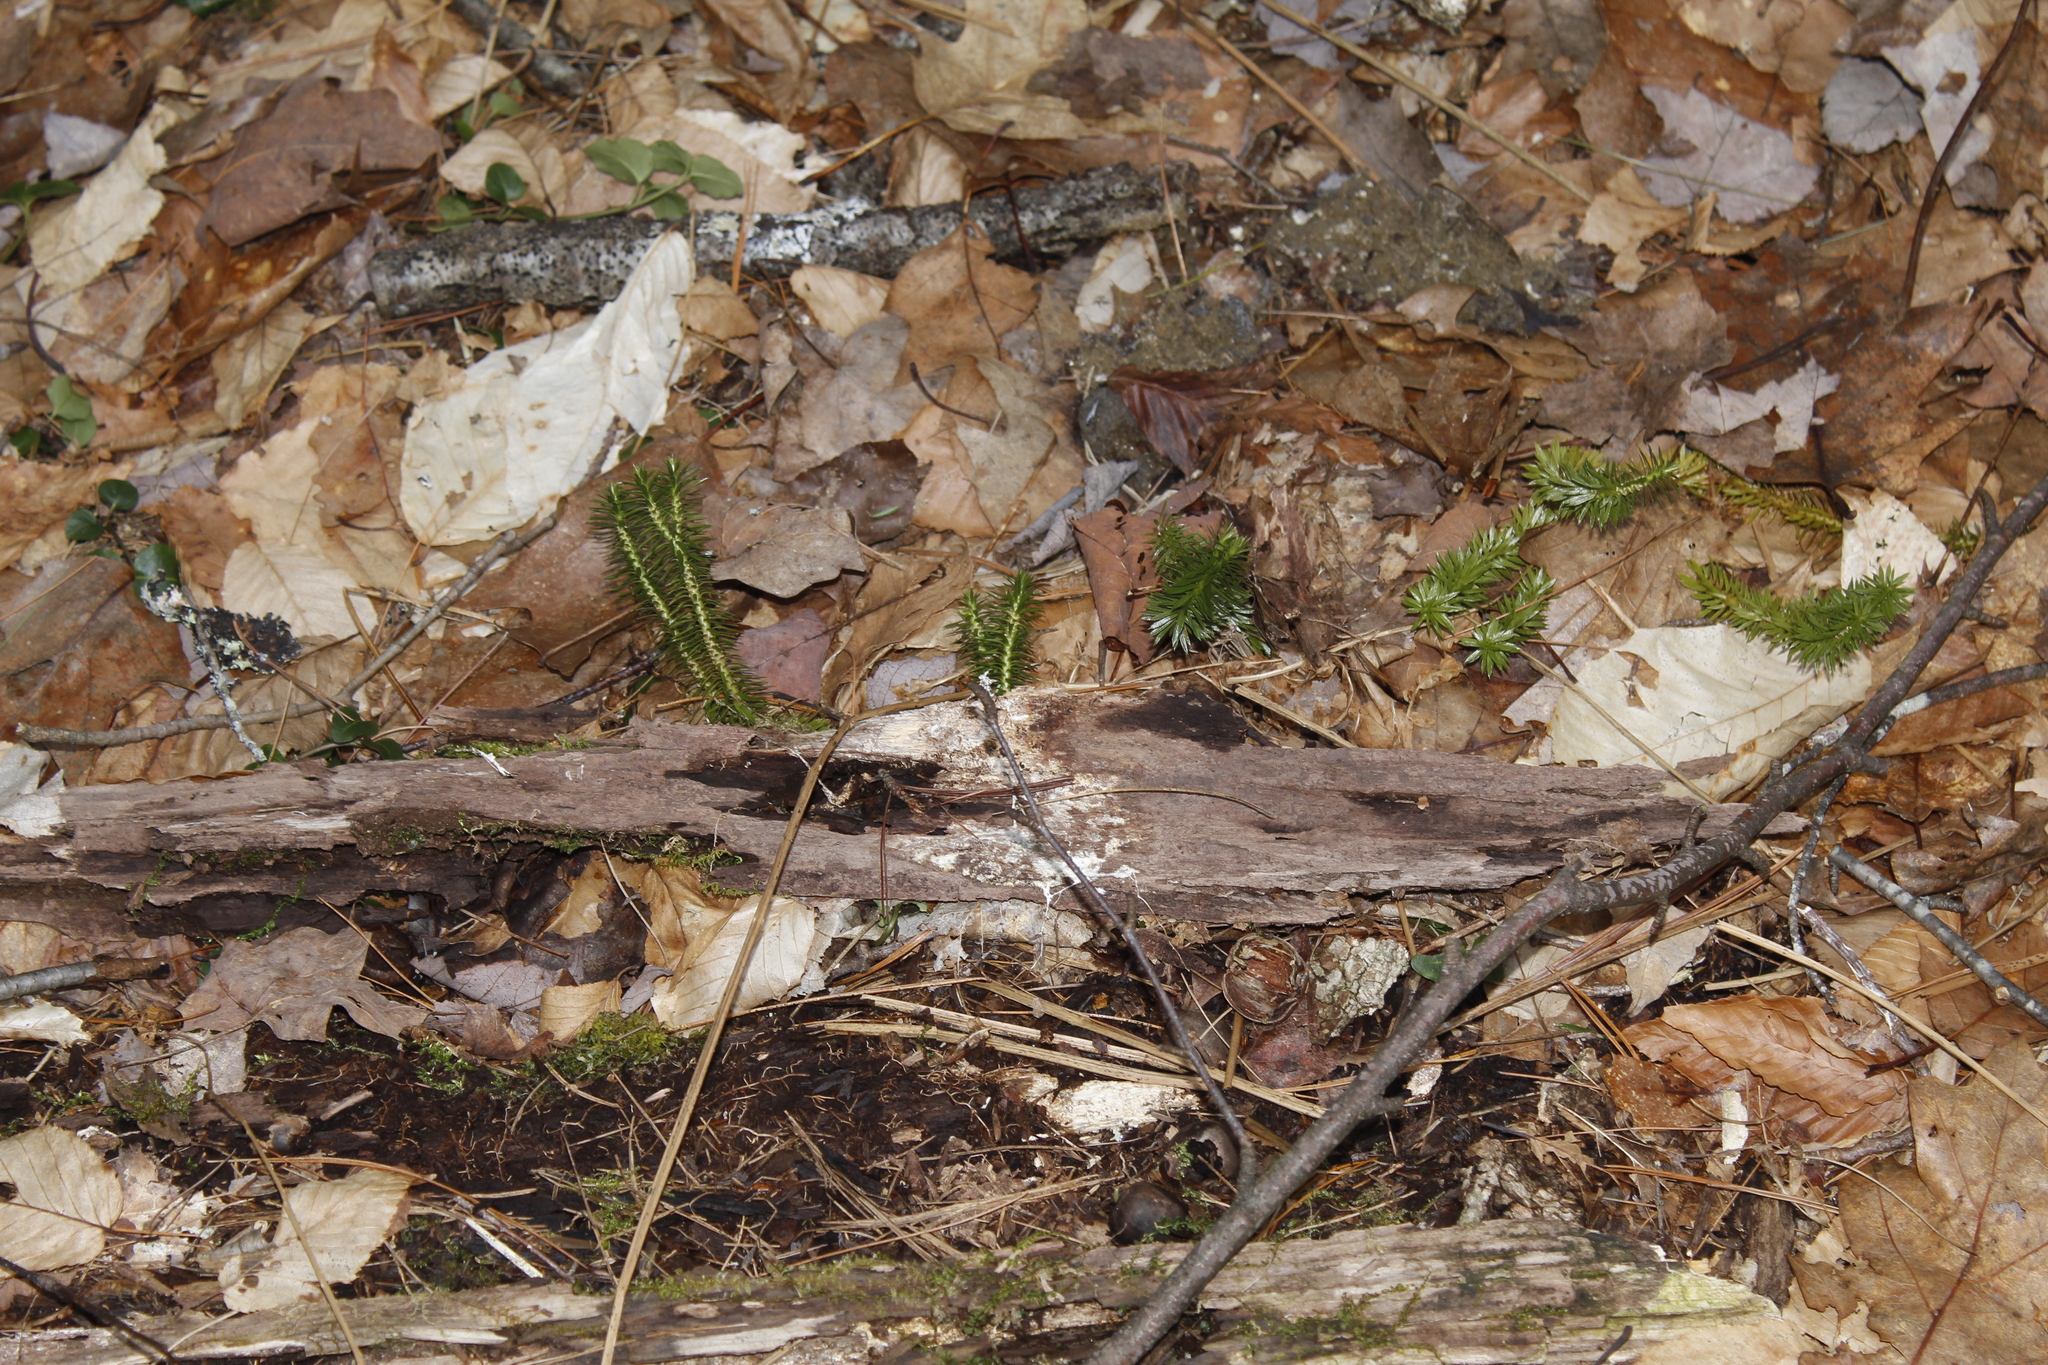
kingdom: Plantae
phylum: Tracheophyta
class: Lycopodiopsida
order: Lycopodiales
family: Lycopodiaceae
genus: Huperzia
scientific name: Huperzia lucidula
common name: Shining clubmoss
